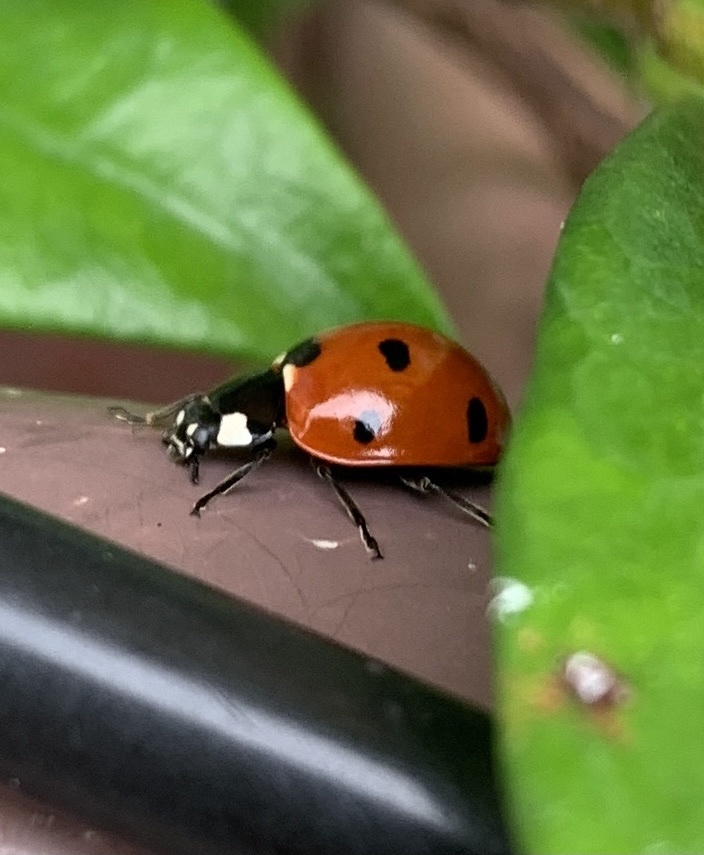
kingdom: Animalia
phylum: Arthropoda
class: Insecta
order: Coleoptera
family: Coccinellidae
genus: Coccinella
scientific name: Coccinella septempunctata
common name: Sevenspotted lady beetle
